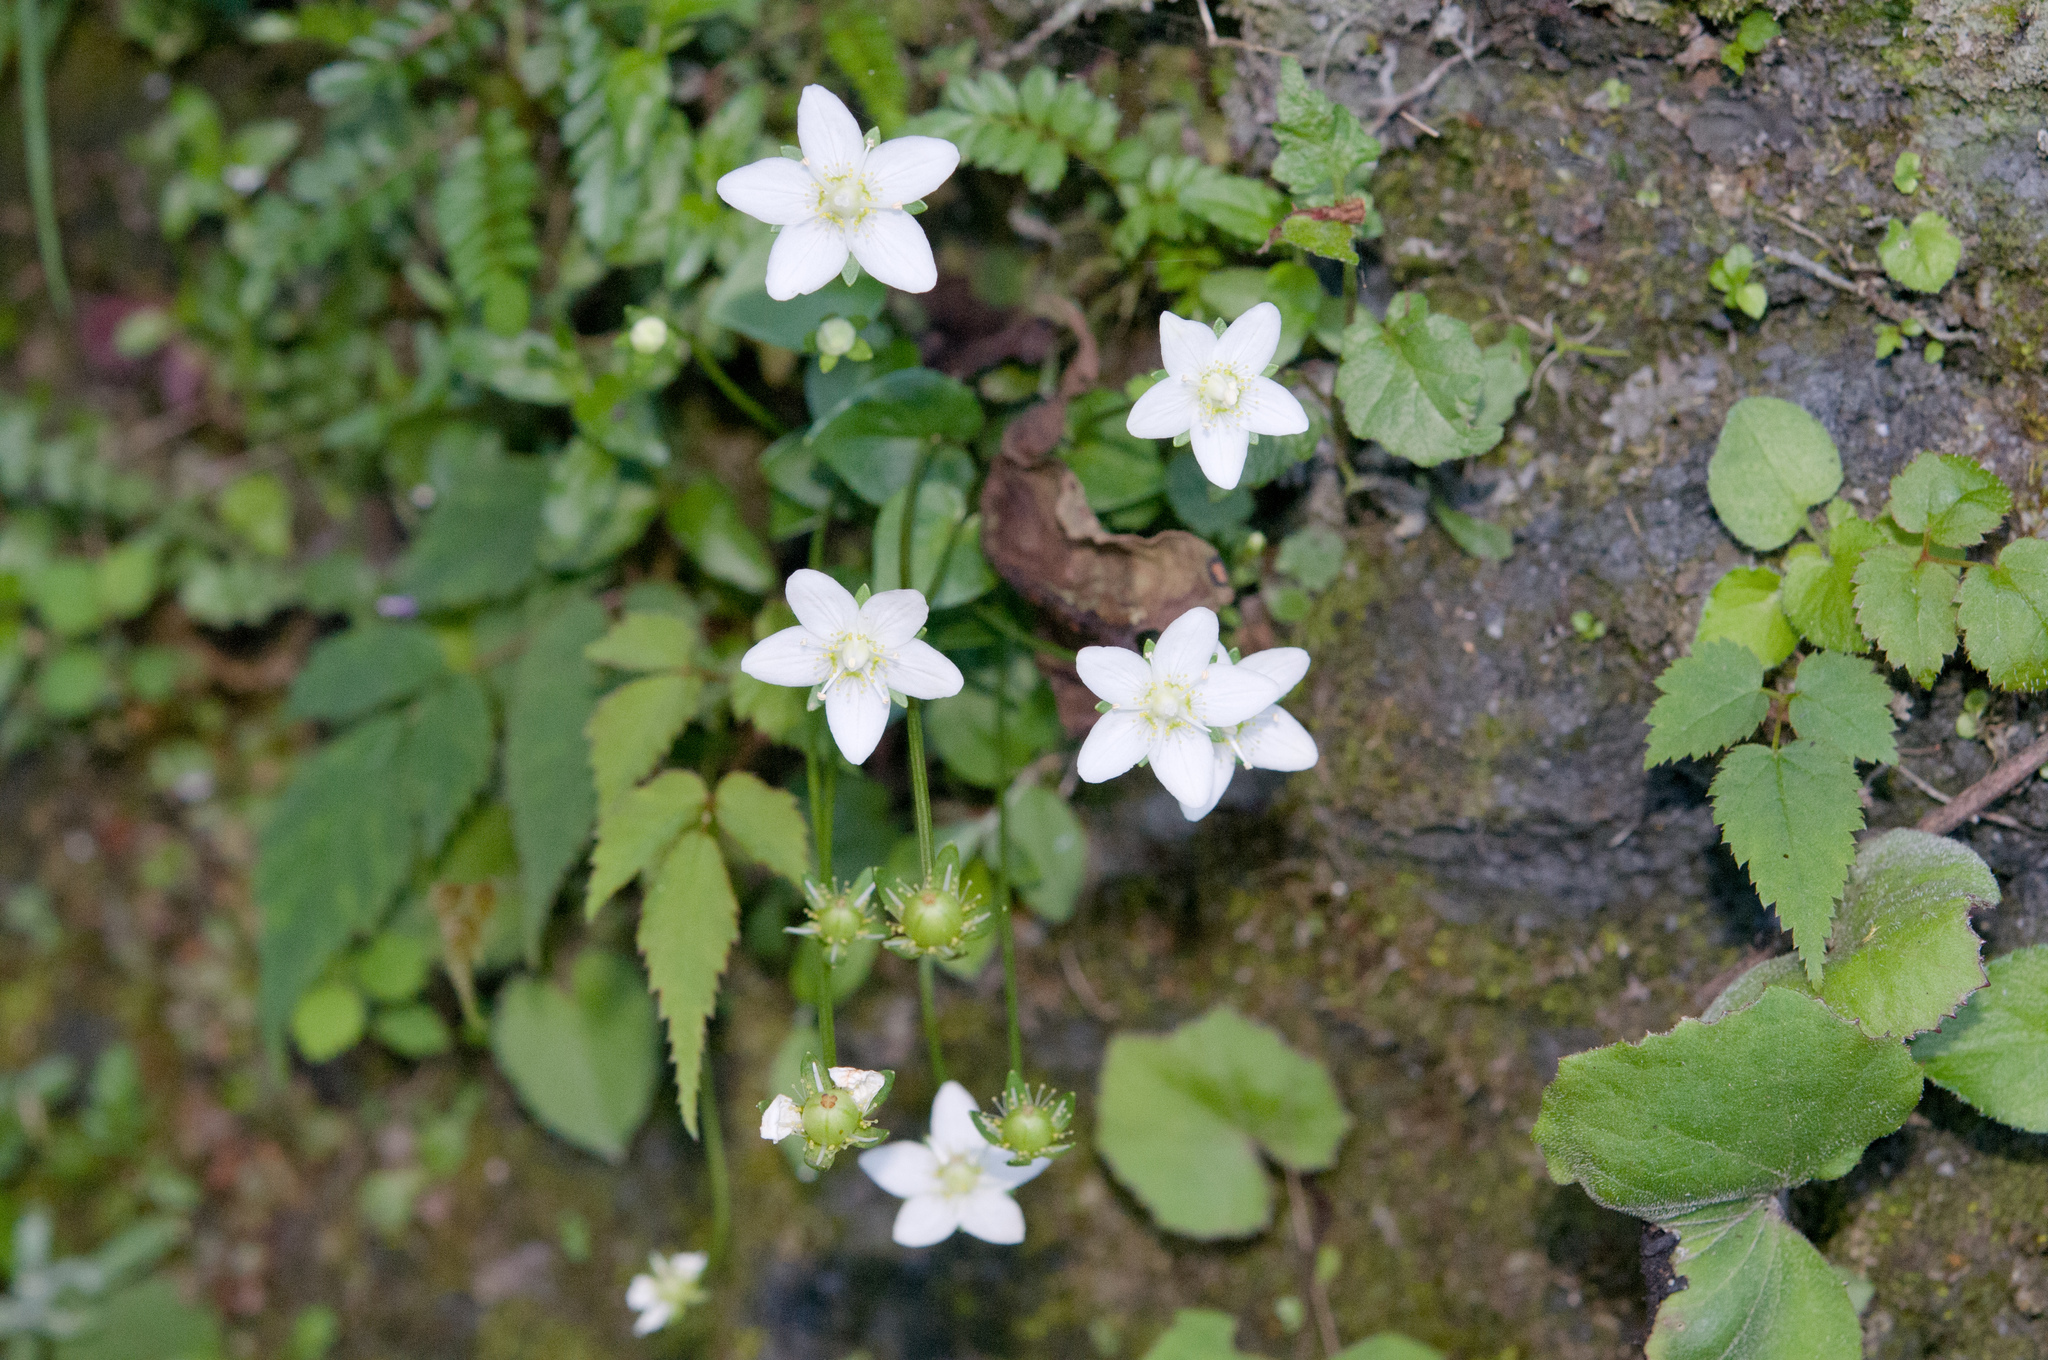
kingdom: Plantae
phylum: Tracheophyta
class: Magnoliopsida
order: Celastrales
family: Parnassiaceae
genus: Parnassia
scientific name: Parnassia palustris
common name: Grass-of-parnassus
